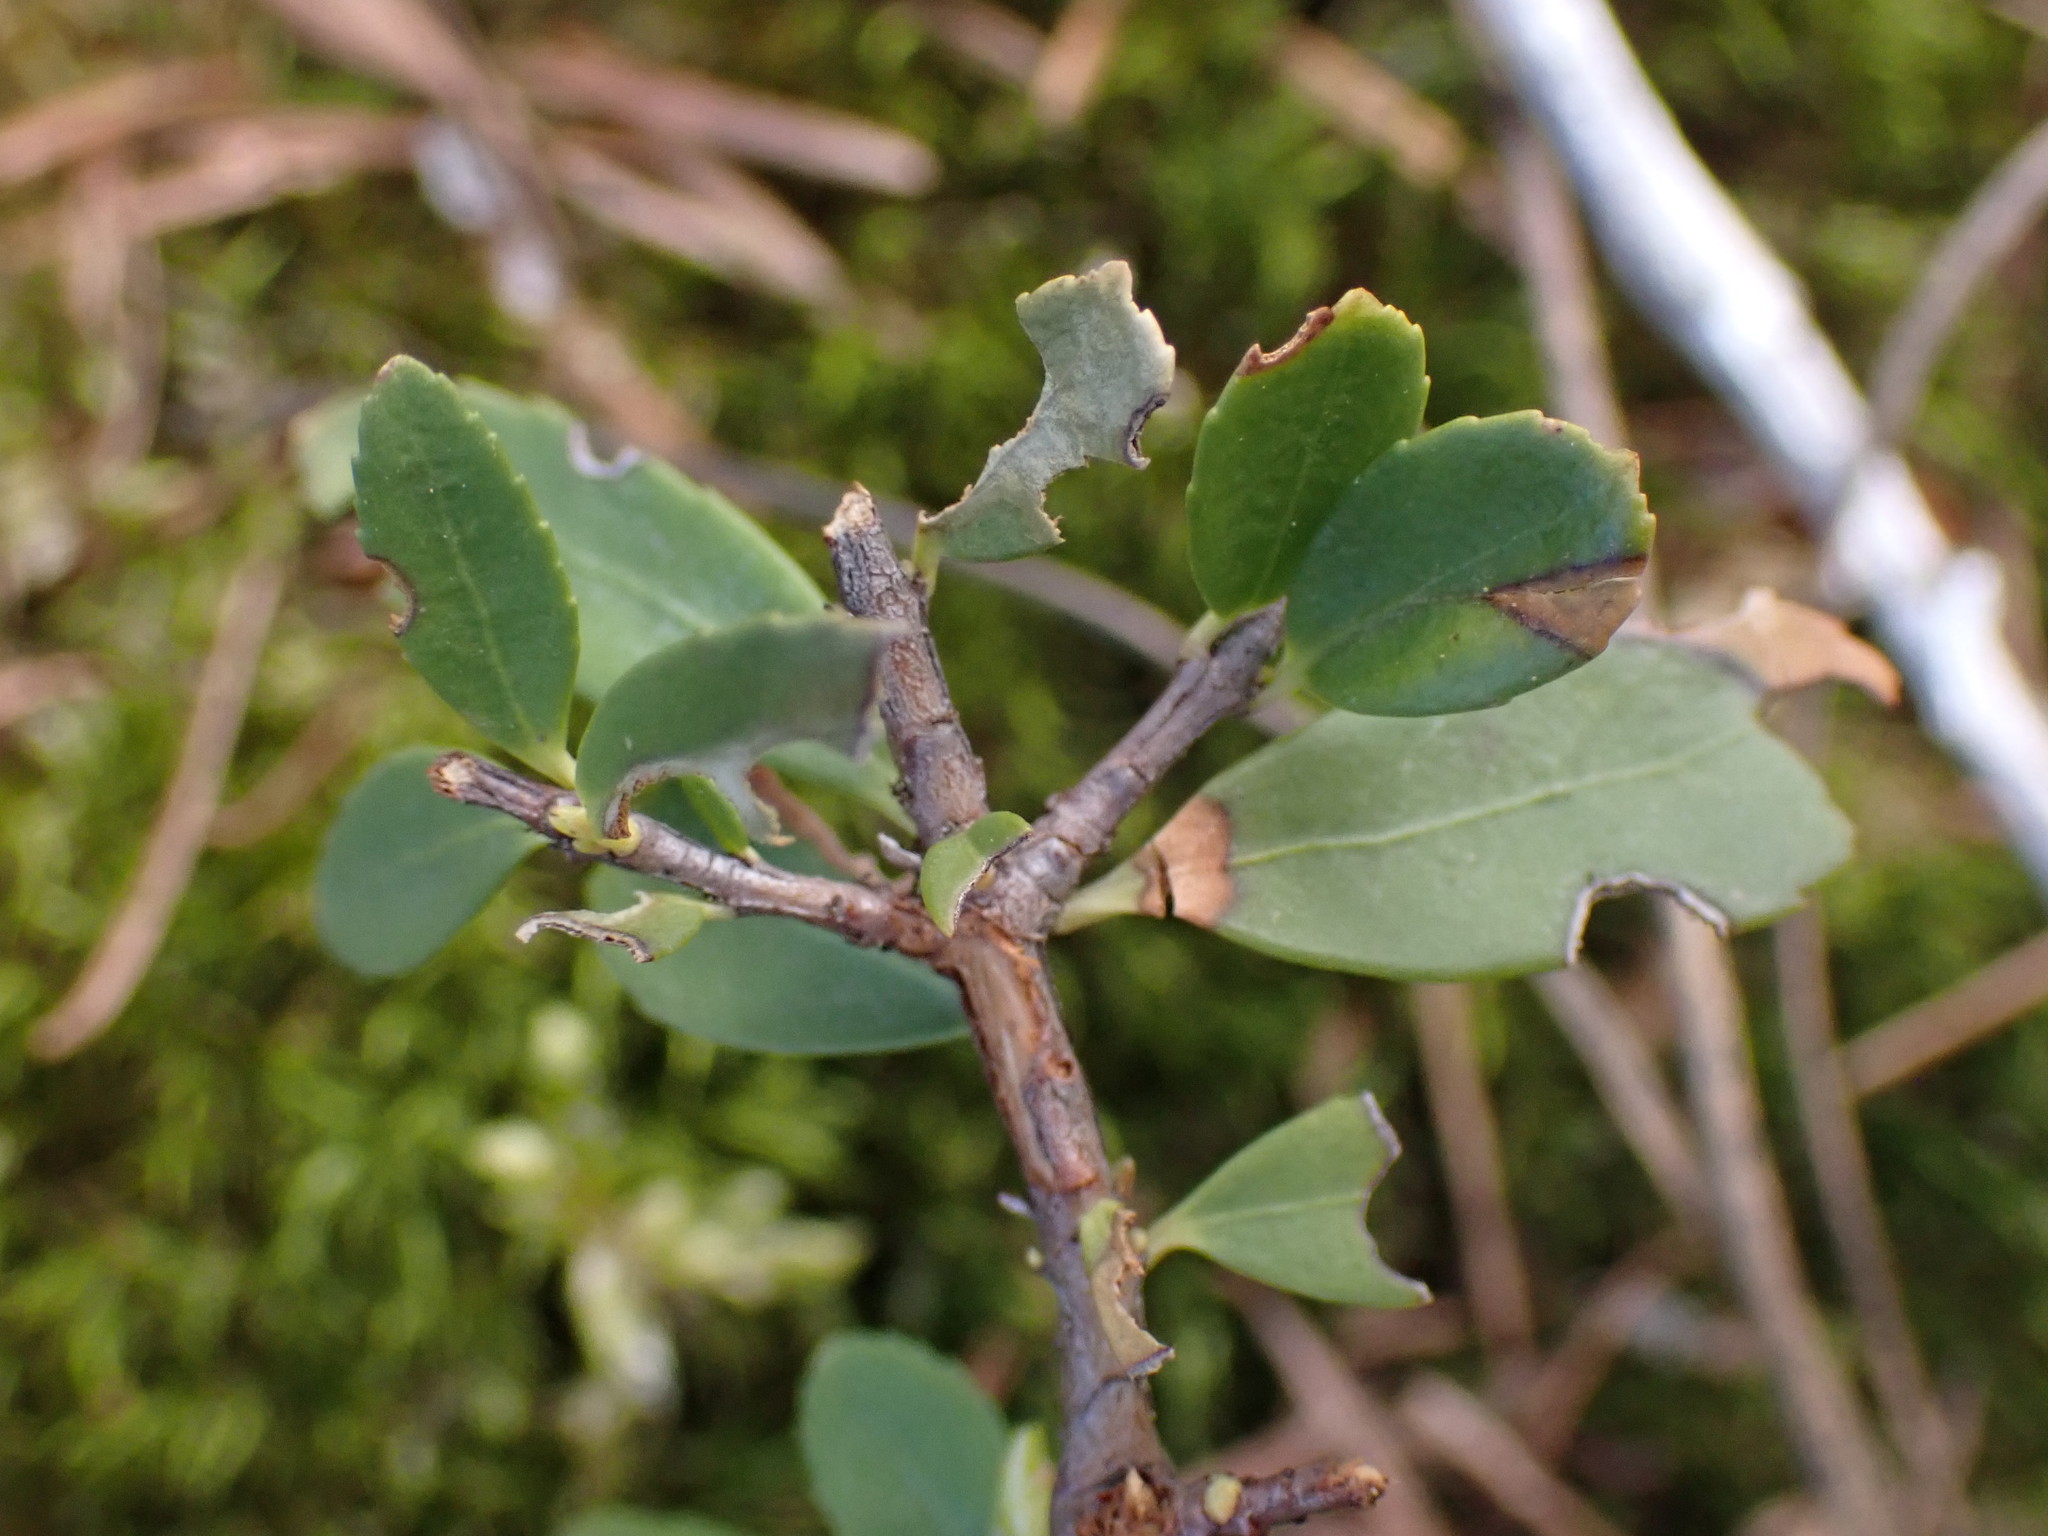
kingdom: Plantae
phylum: Tracheophyta
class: Magnoliopsida
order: Celastrales
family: Celastraceae
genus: Paxistima
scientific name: Paxistima myrsinites
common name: Mountain-lover
